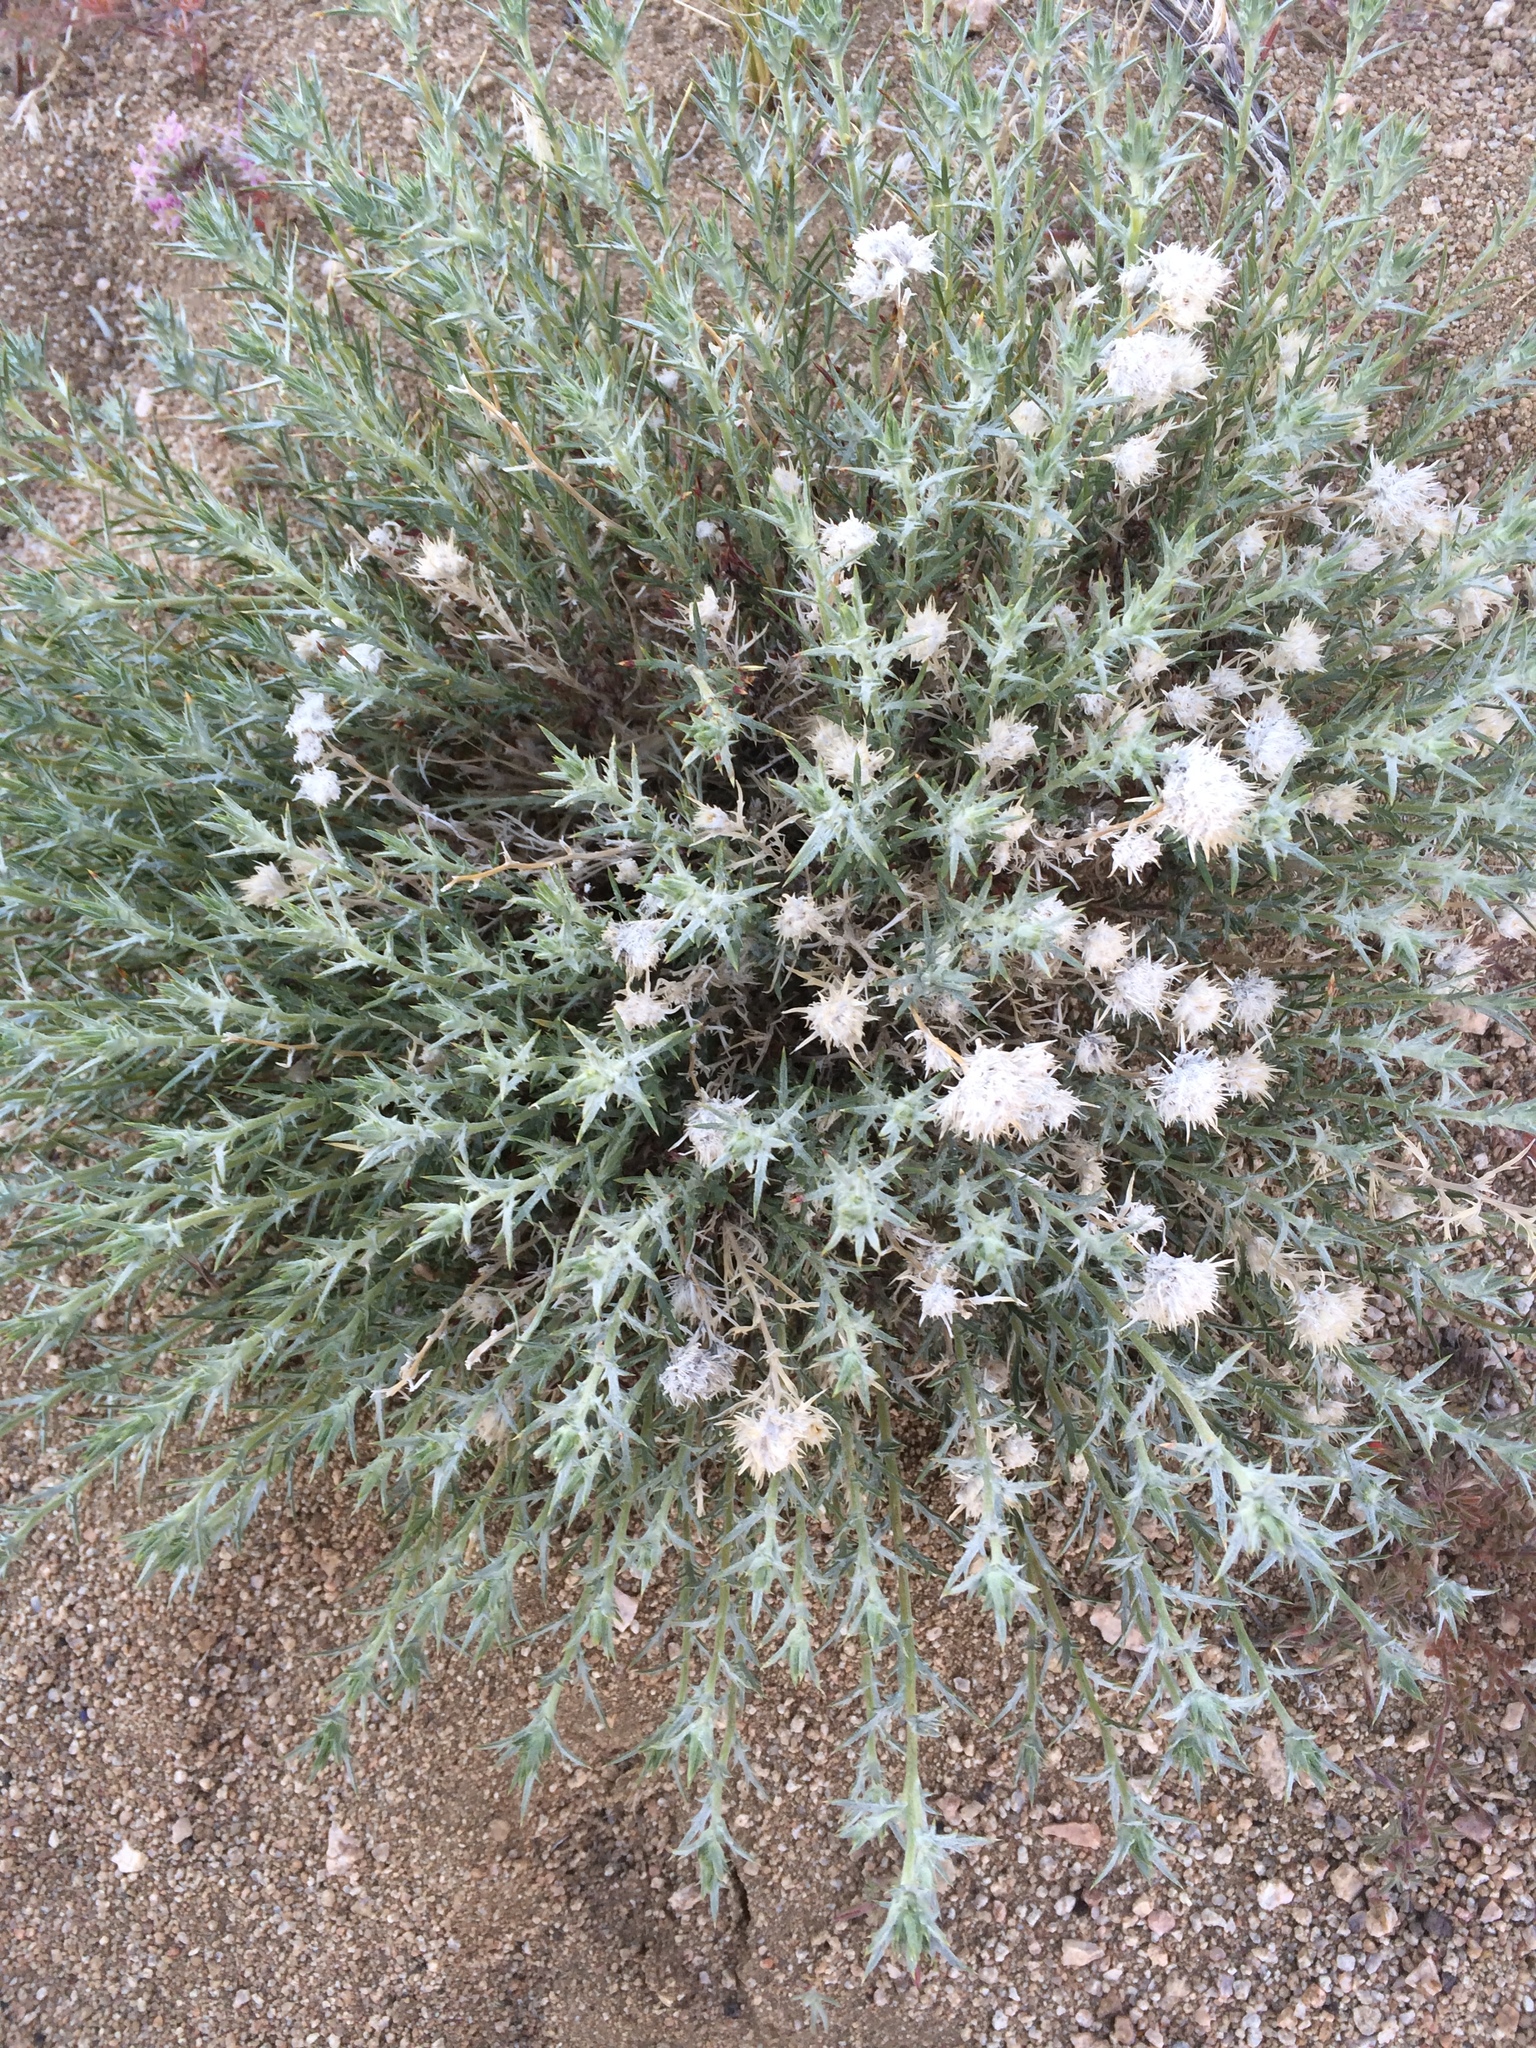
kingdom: Plantae
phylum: Tracheophyta
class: Magnoliopsida
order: Ericales
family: Polemoniaceae
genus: Eriastrum
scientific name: Eriastrum densifolium
